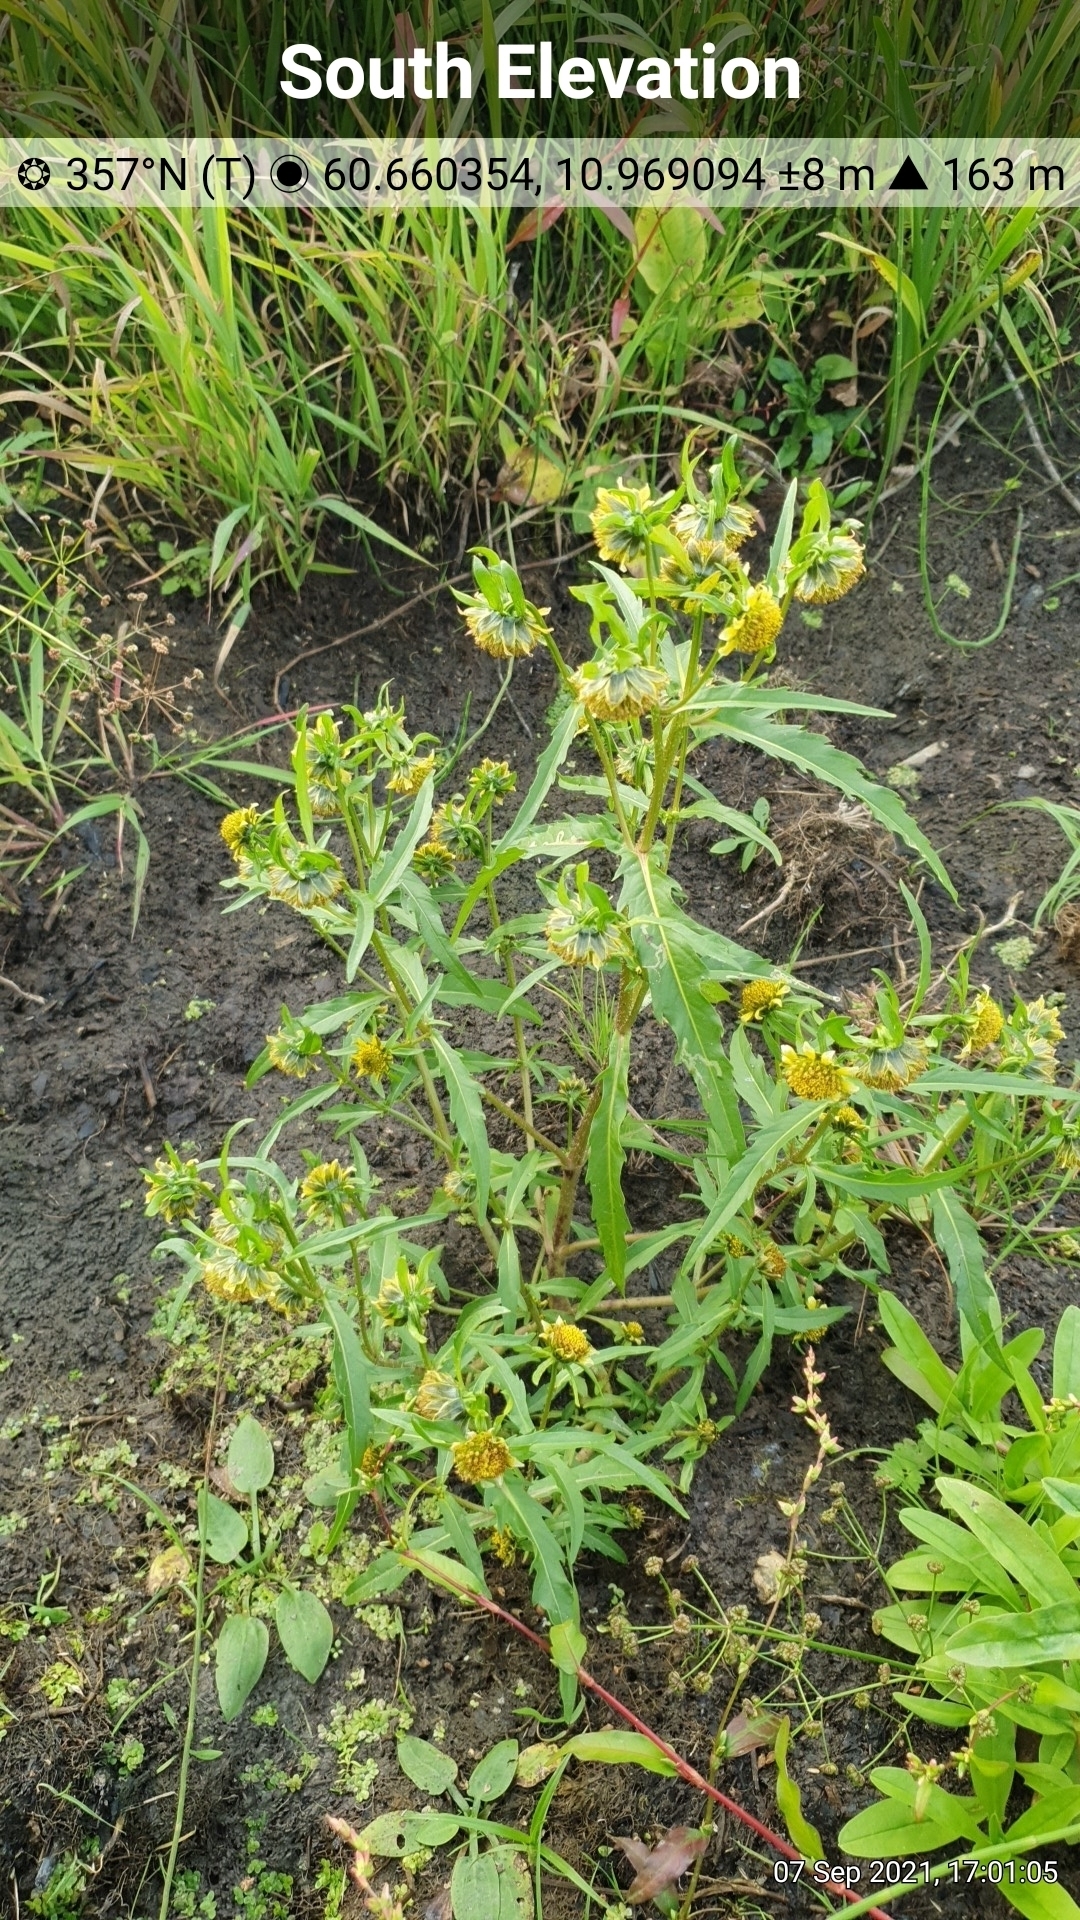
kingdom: Plantae
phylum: Tracheophyta
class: Magnoliopsida
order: Asterales
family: Asteraceae
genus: Bidens
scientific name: Bidens cernua
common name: Nodding bur-marigold
